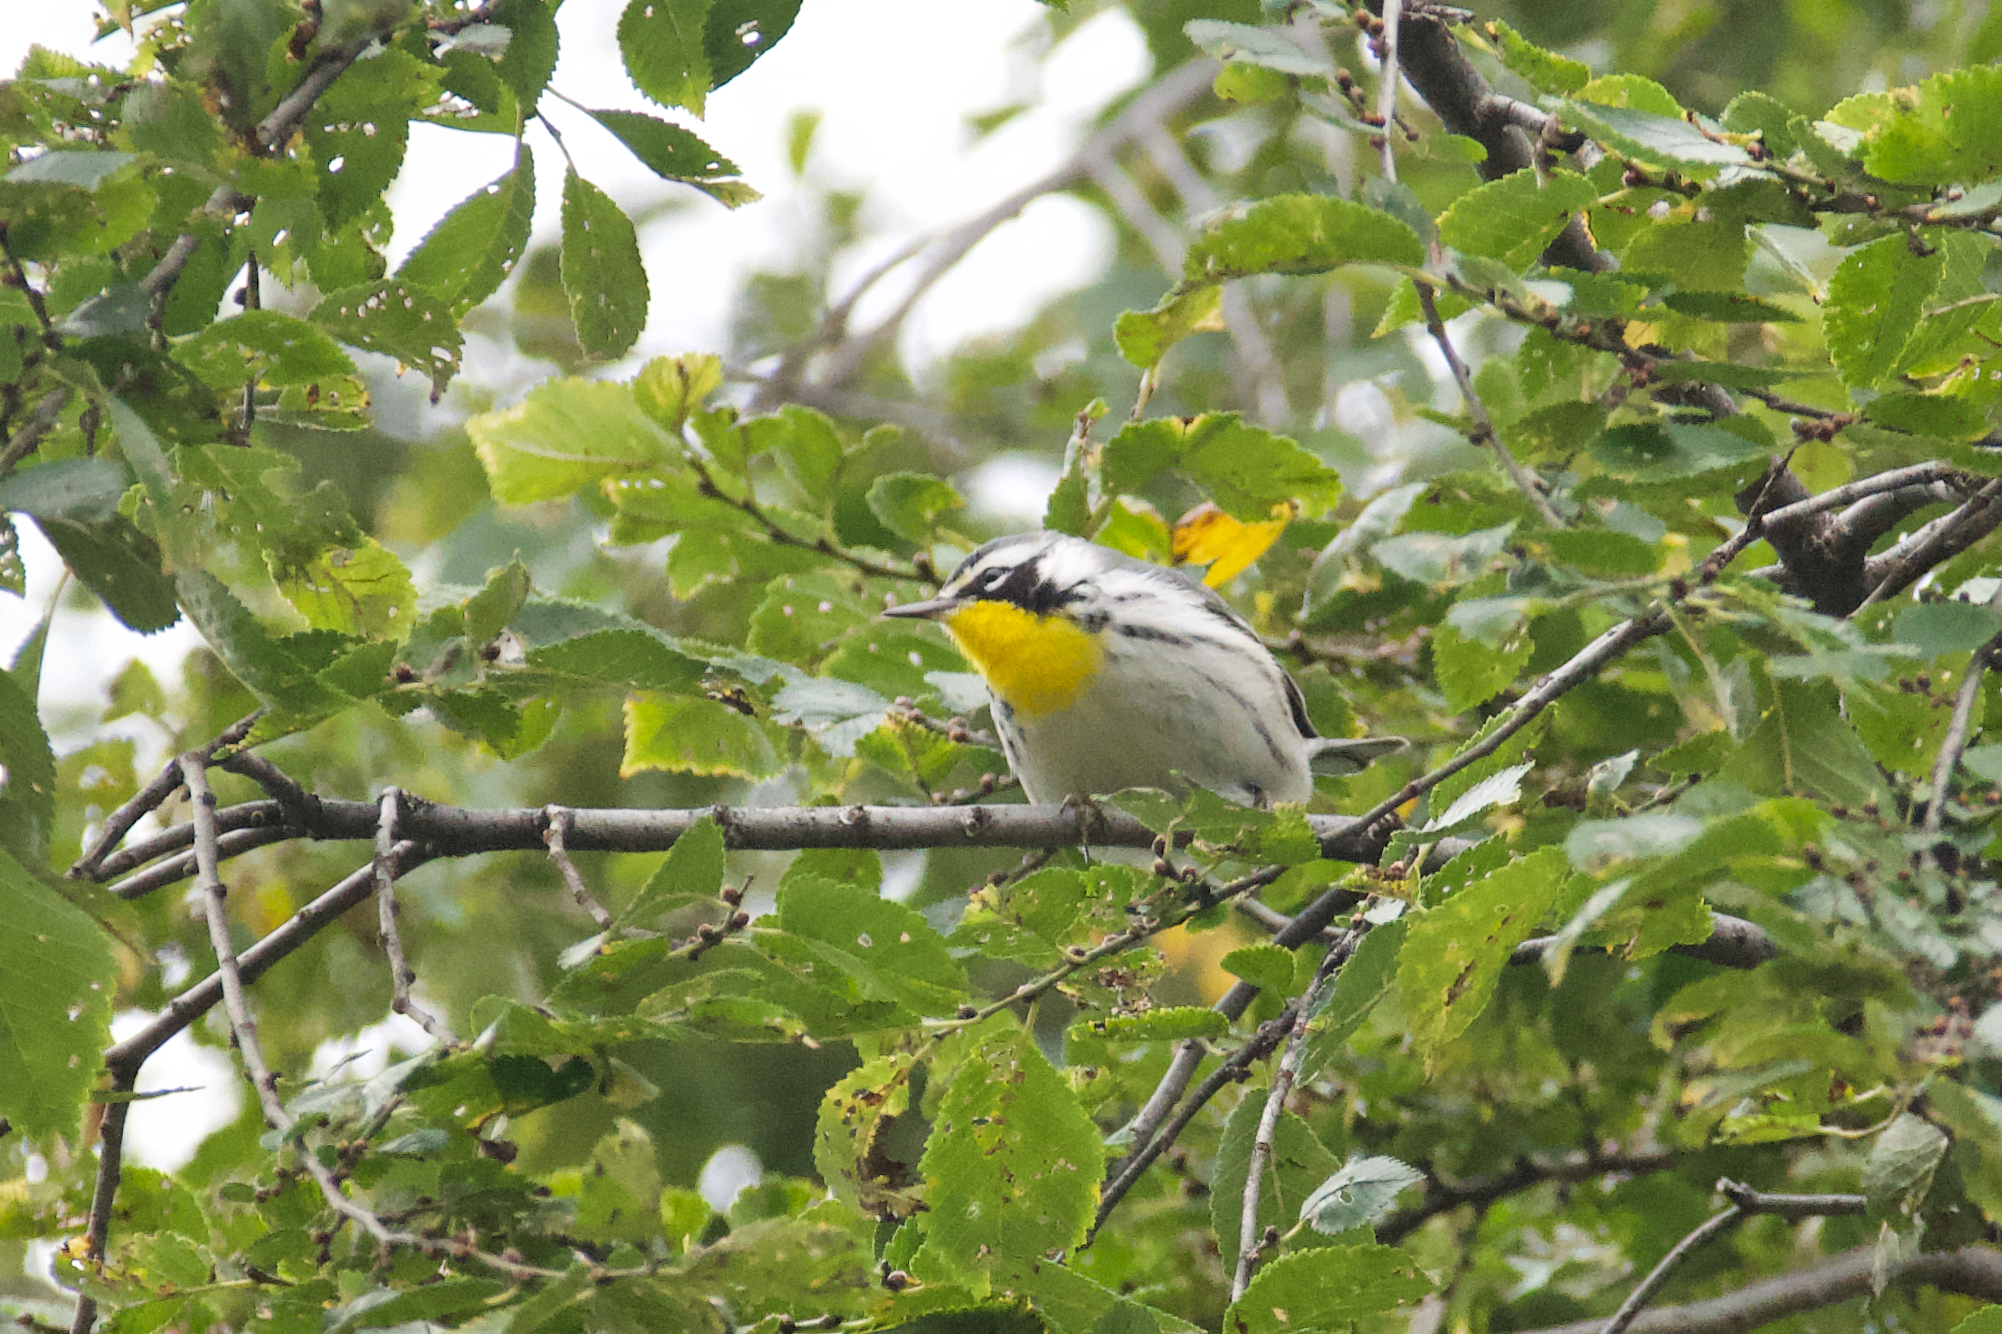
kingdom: Animalia
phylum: Chordata
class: Aves
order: Passeriformes
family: Parulidae
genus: Setophaga
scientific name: Setophaga dominica
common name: Yellow-throated warbler
